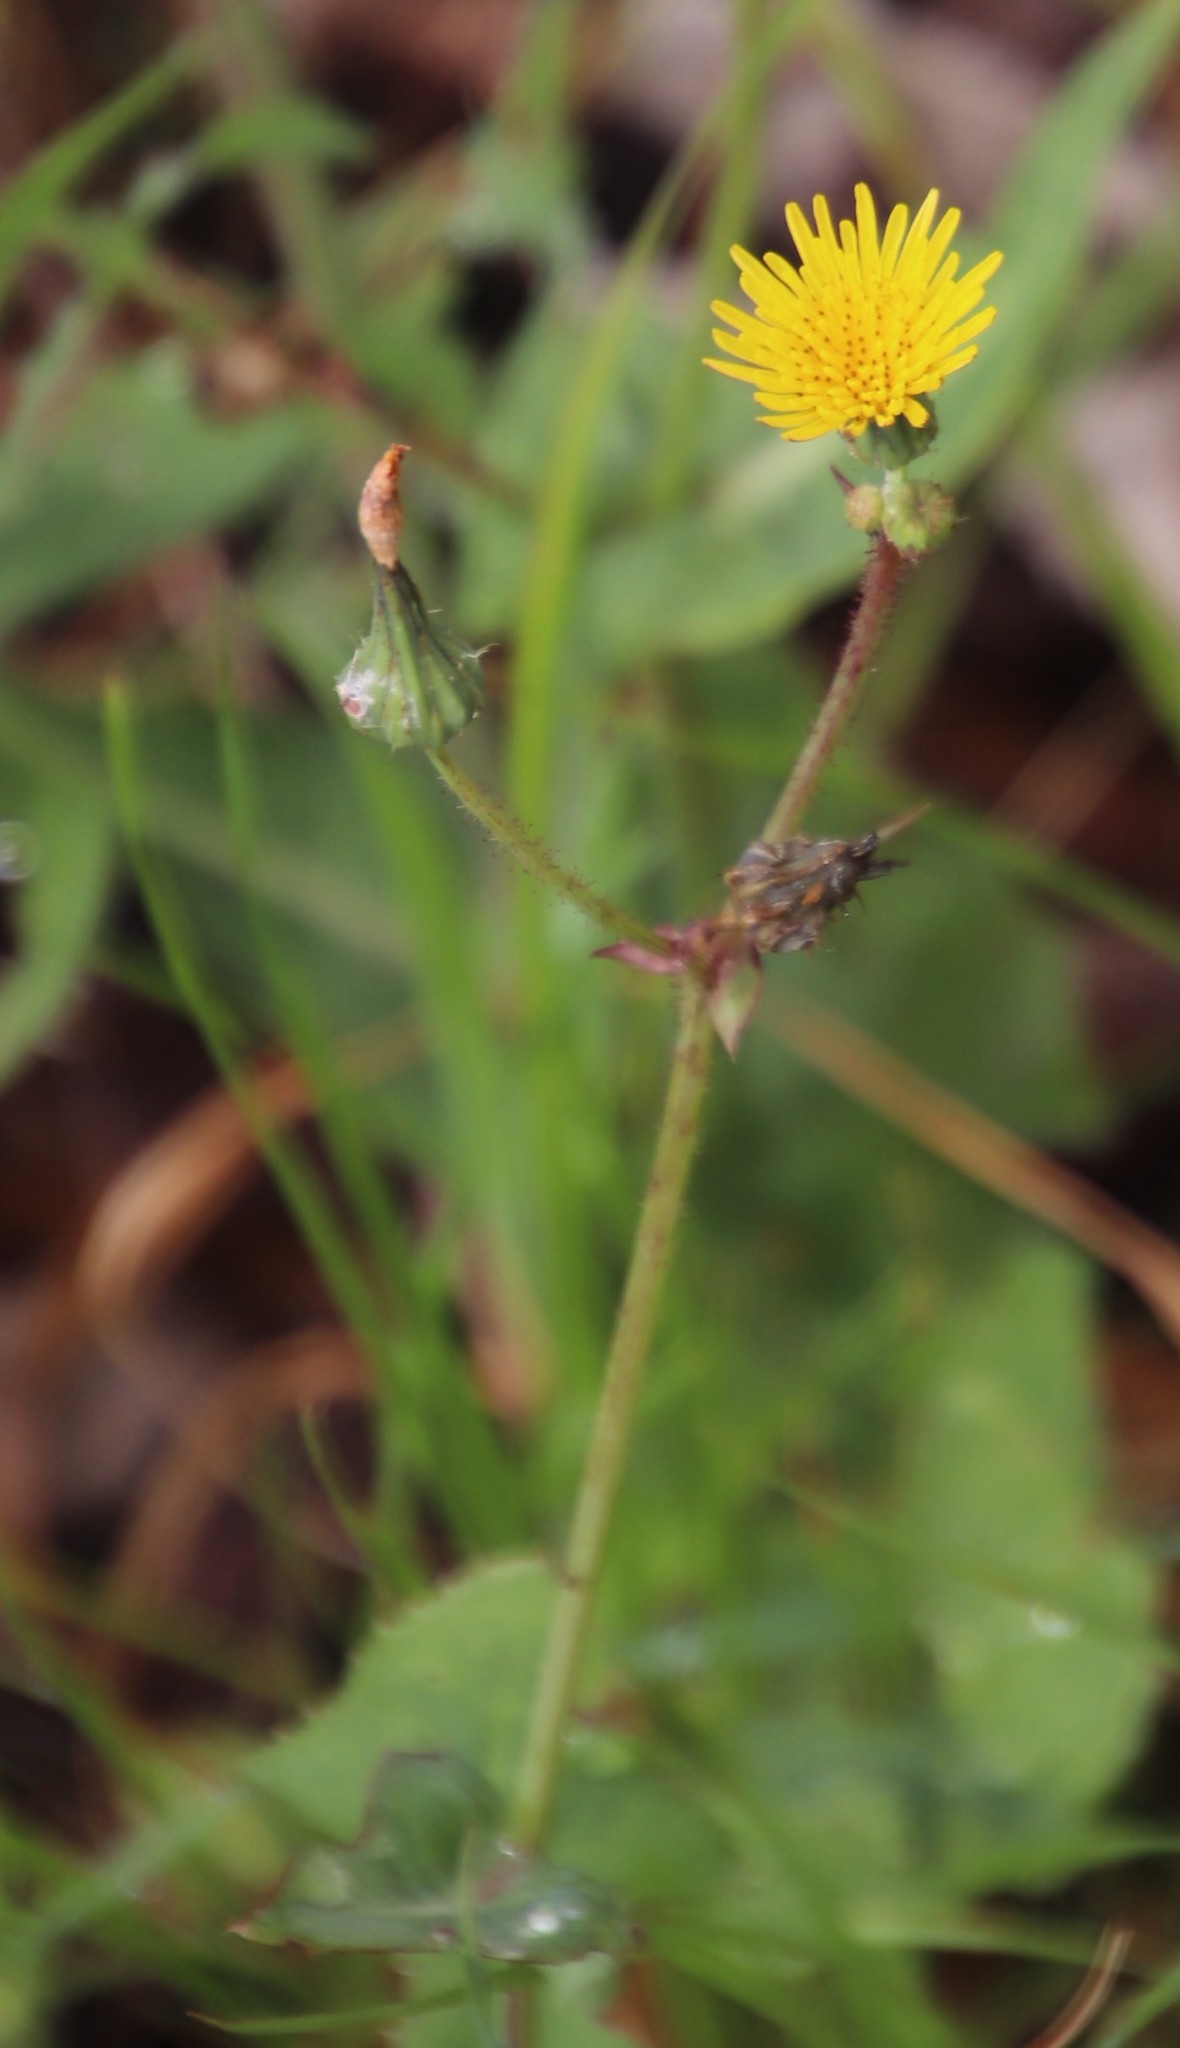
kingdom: Plantae
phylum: Tracheophyta
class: Magnoliopsida
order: Asterales
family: Asteraceae
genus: Sonchus
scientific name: Sonchus oleraceus
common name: Common sowthistle
